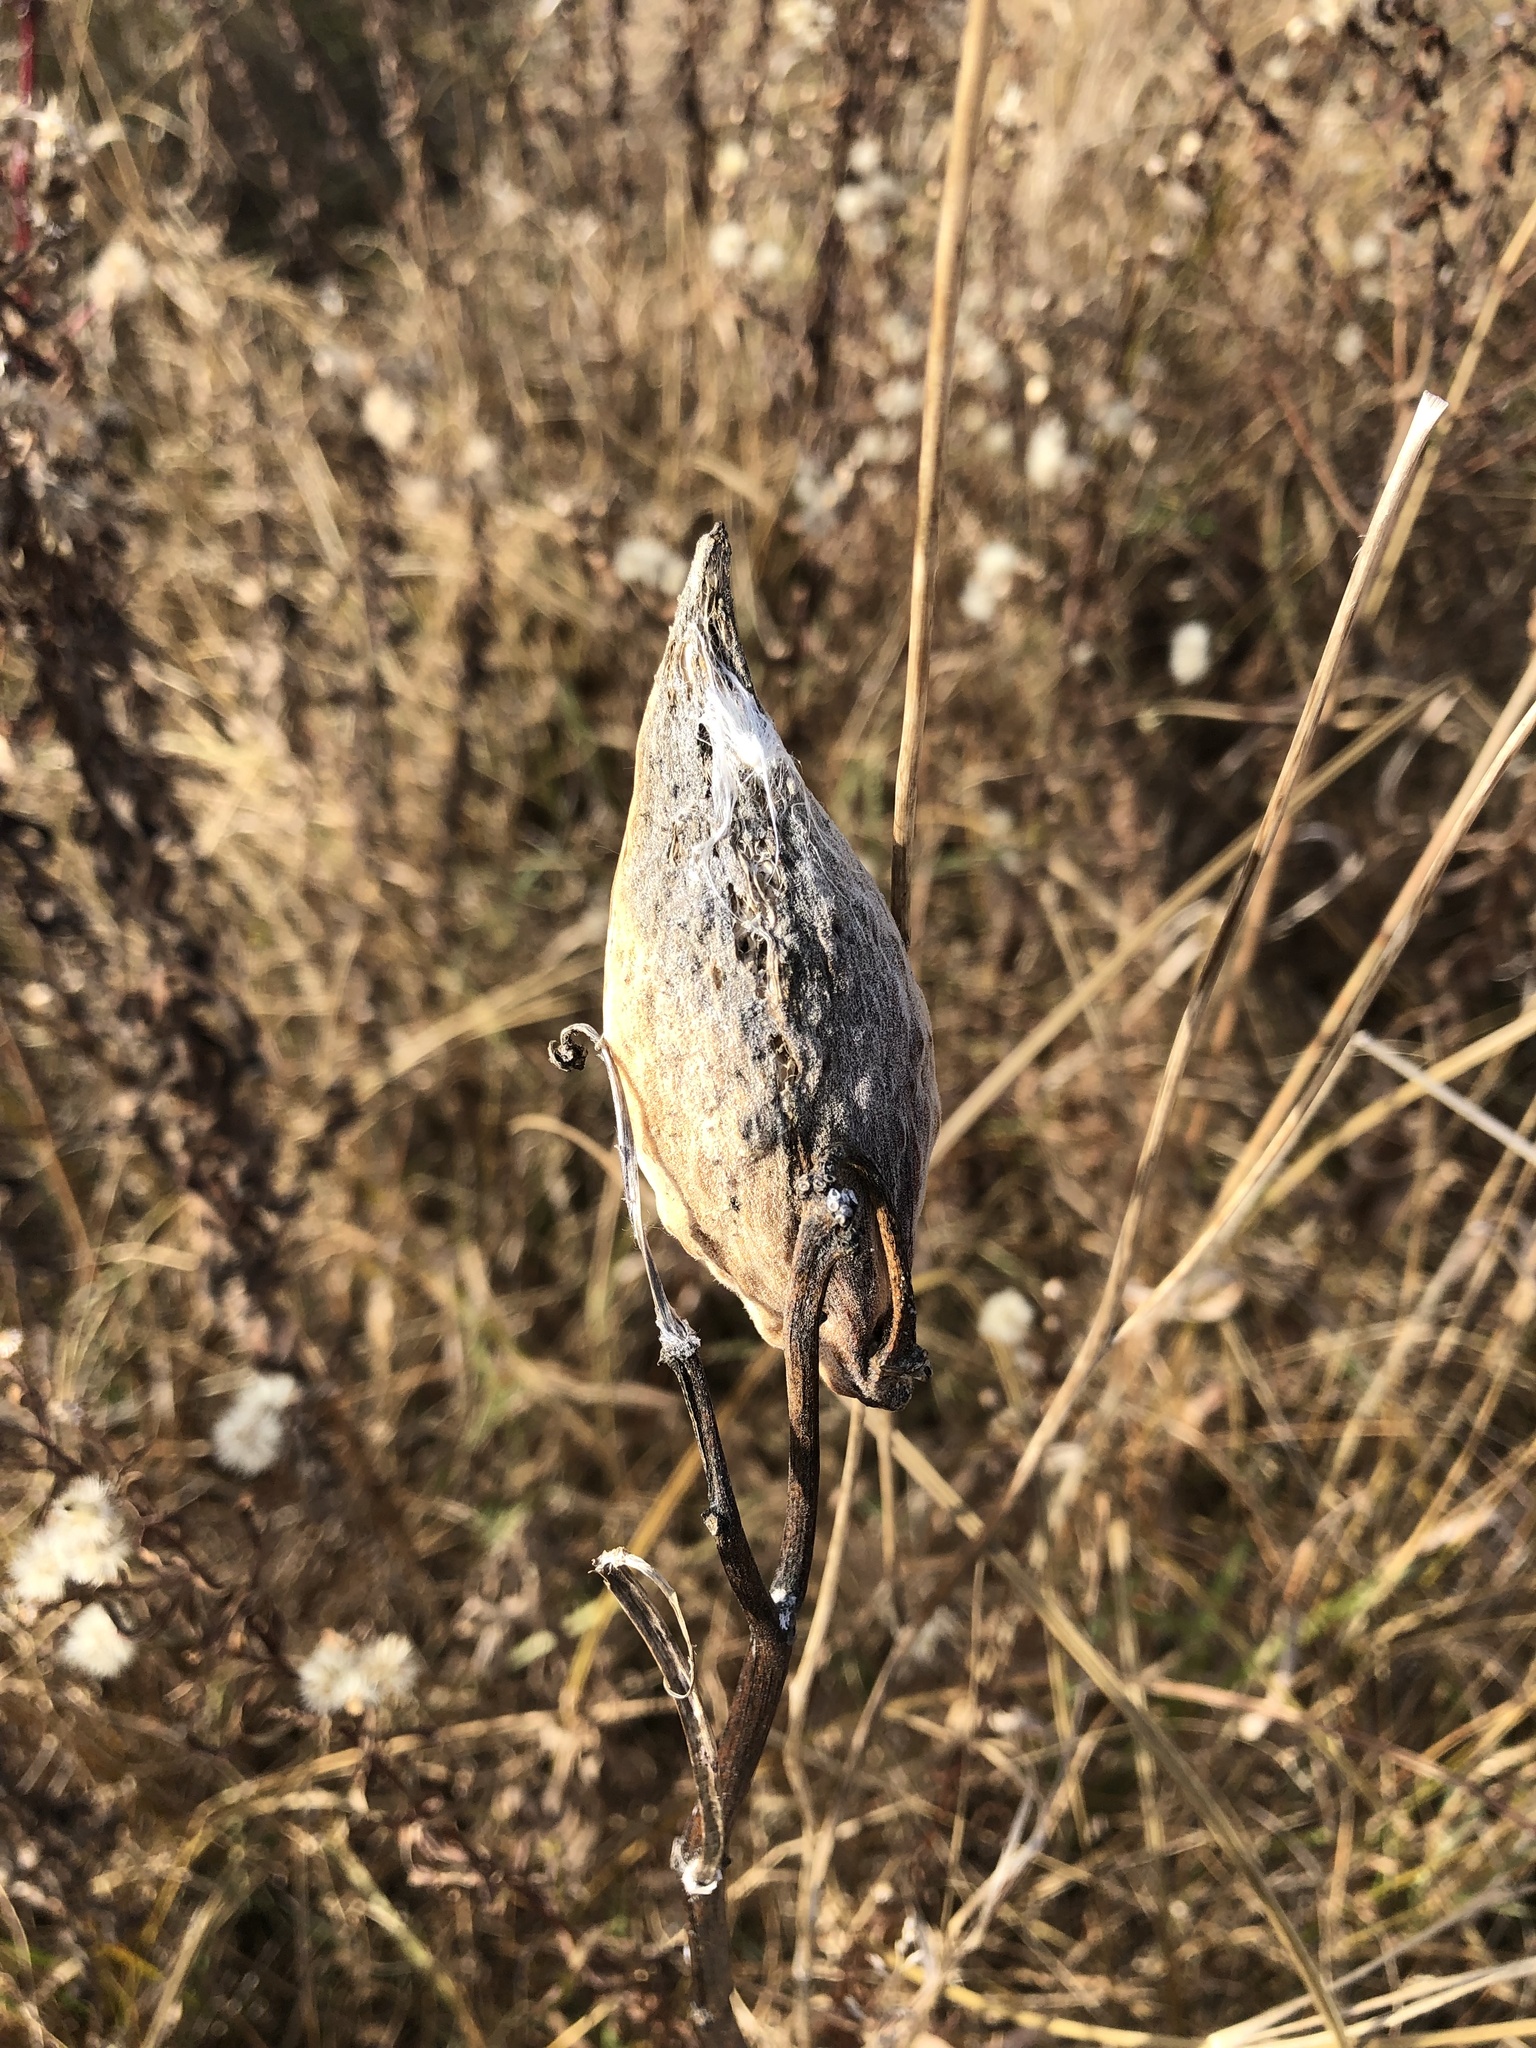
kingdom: Plantae
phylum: Tracheophyta
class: Magnoliopsida
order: Gentianales
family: Apocynaceae
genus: Asclepias
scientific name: Asclepias syriaca
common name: Common milkweed
